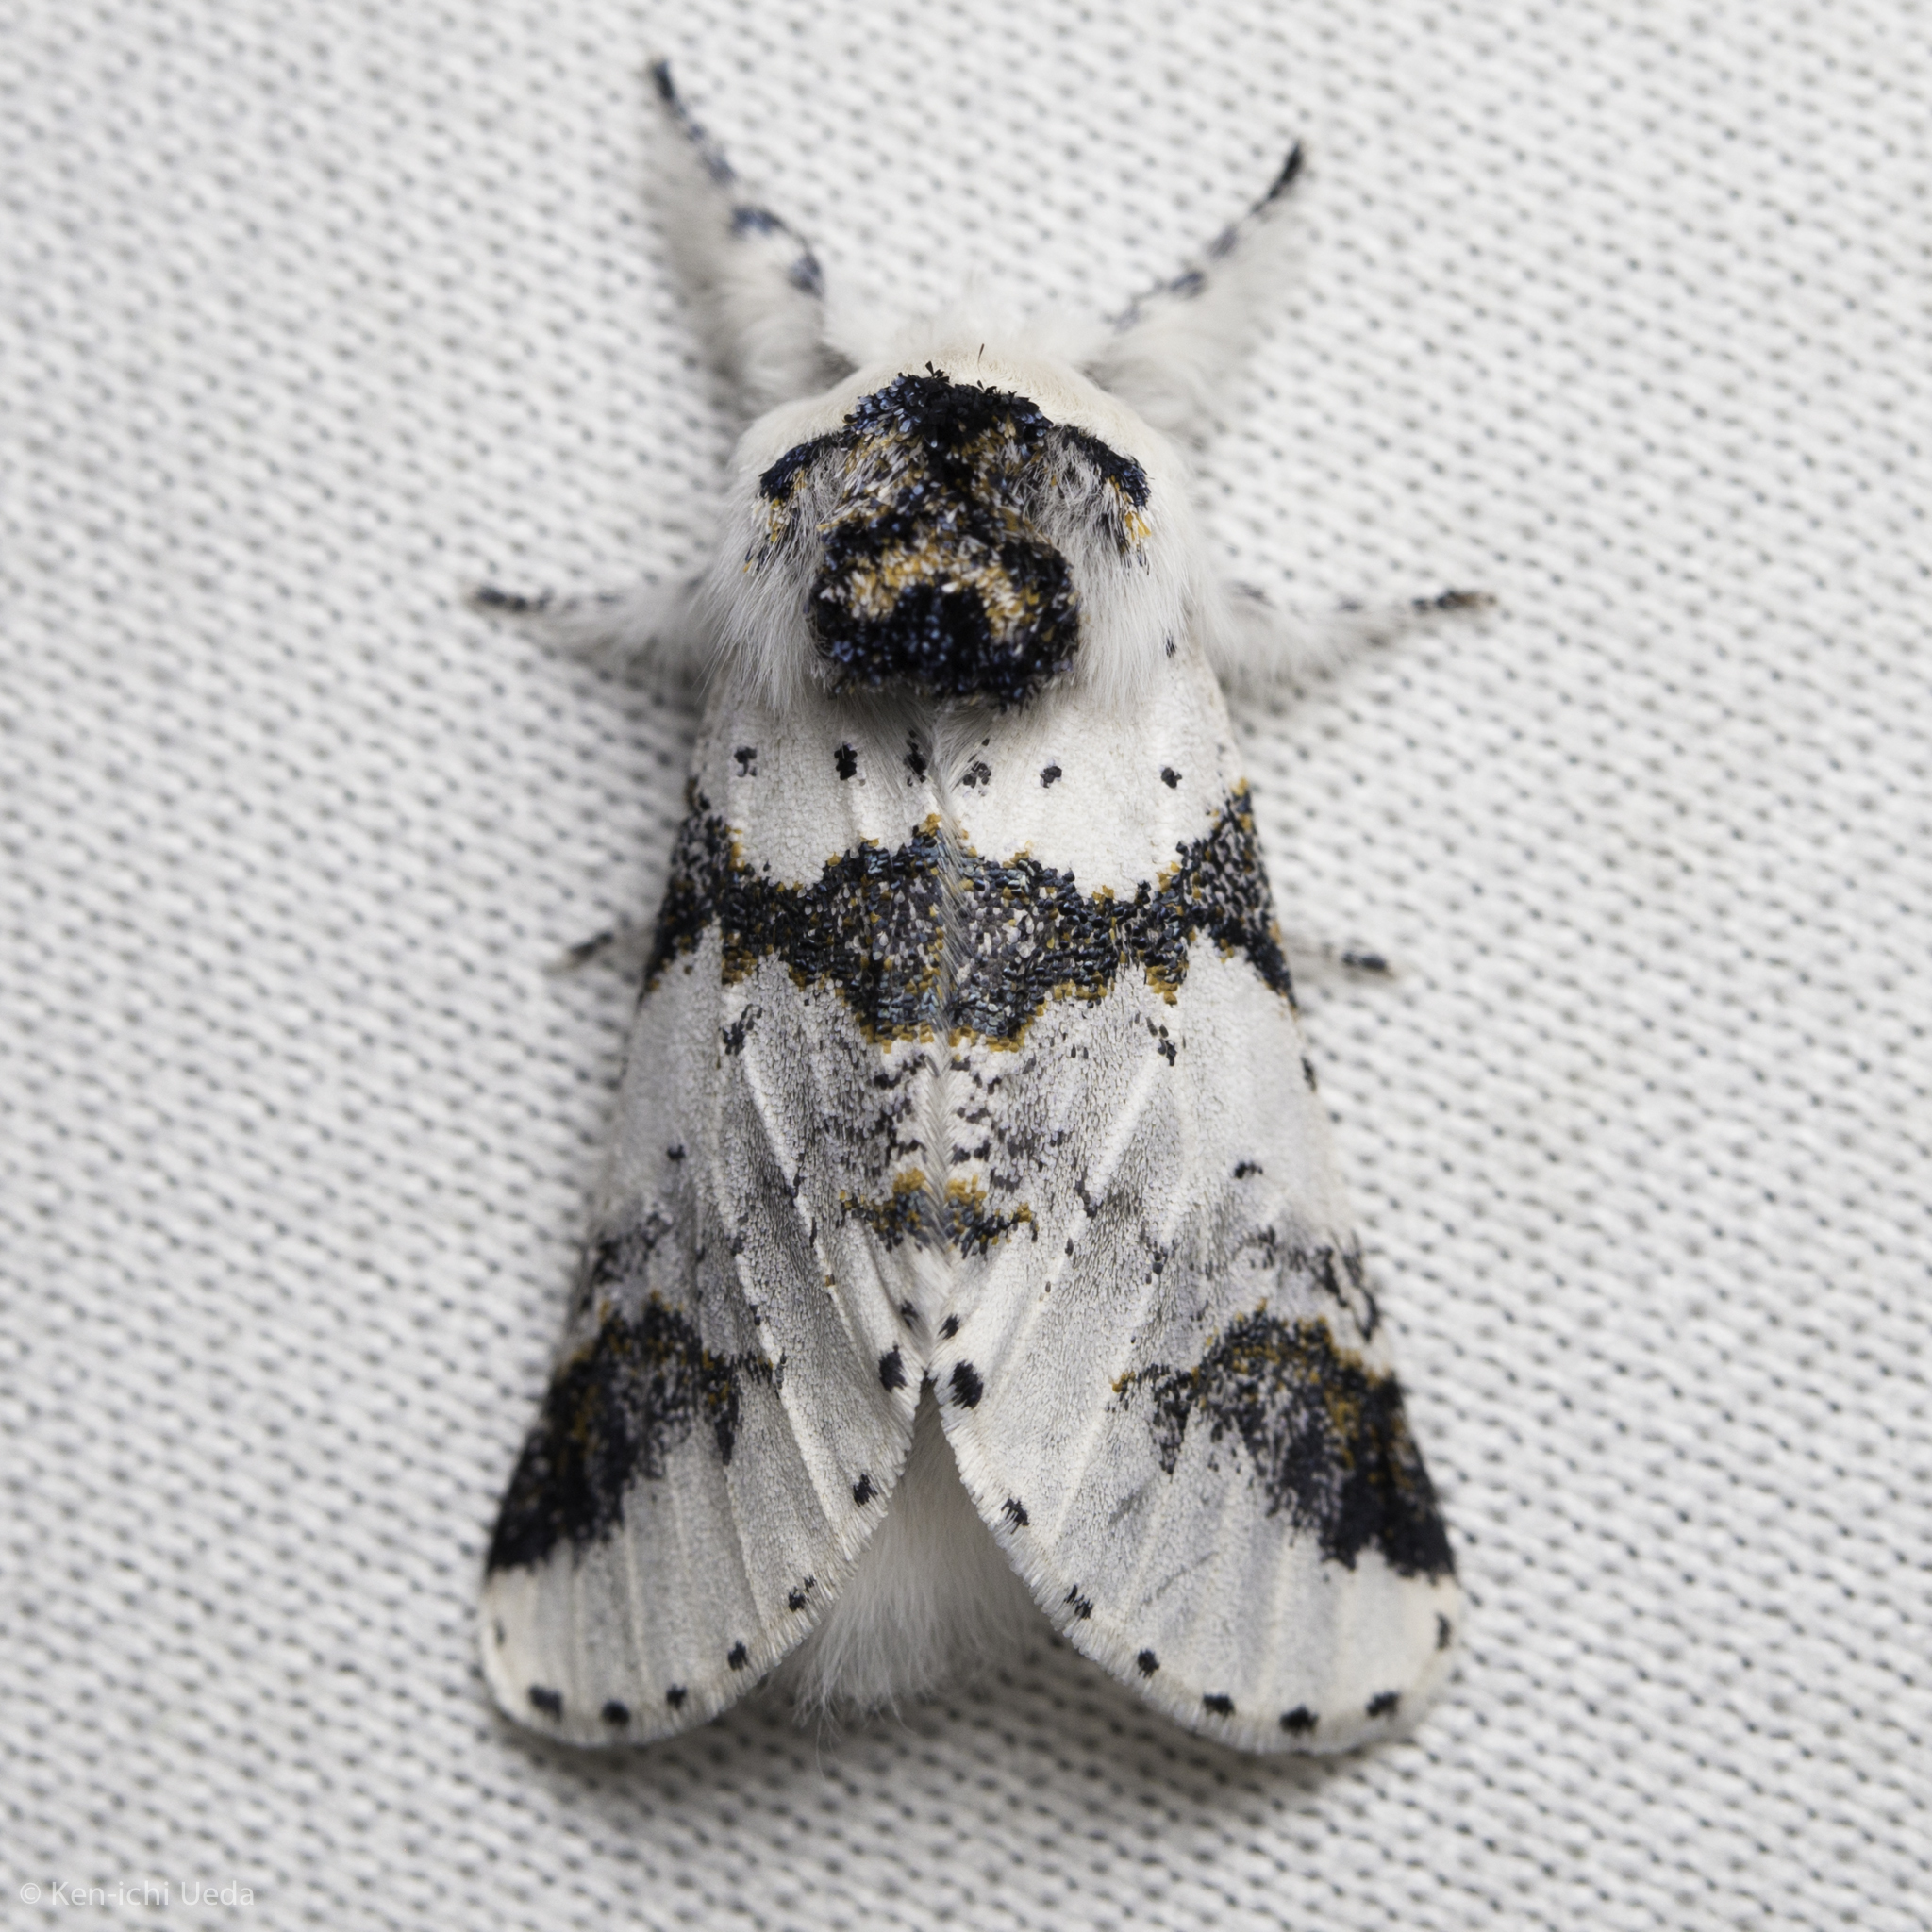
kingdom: Animalia
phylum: Arthropoda
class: Insecta
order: Lepidoptera
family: Notodontidae
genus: Furcula
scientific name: Furcula scolopendrina
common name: Zigzag furcula moth
